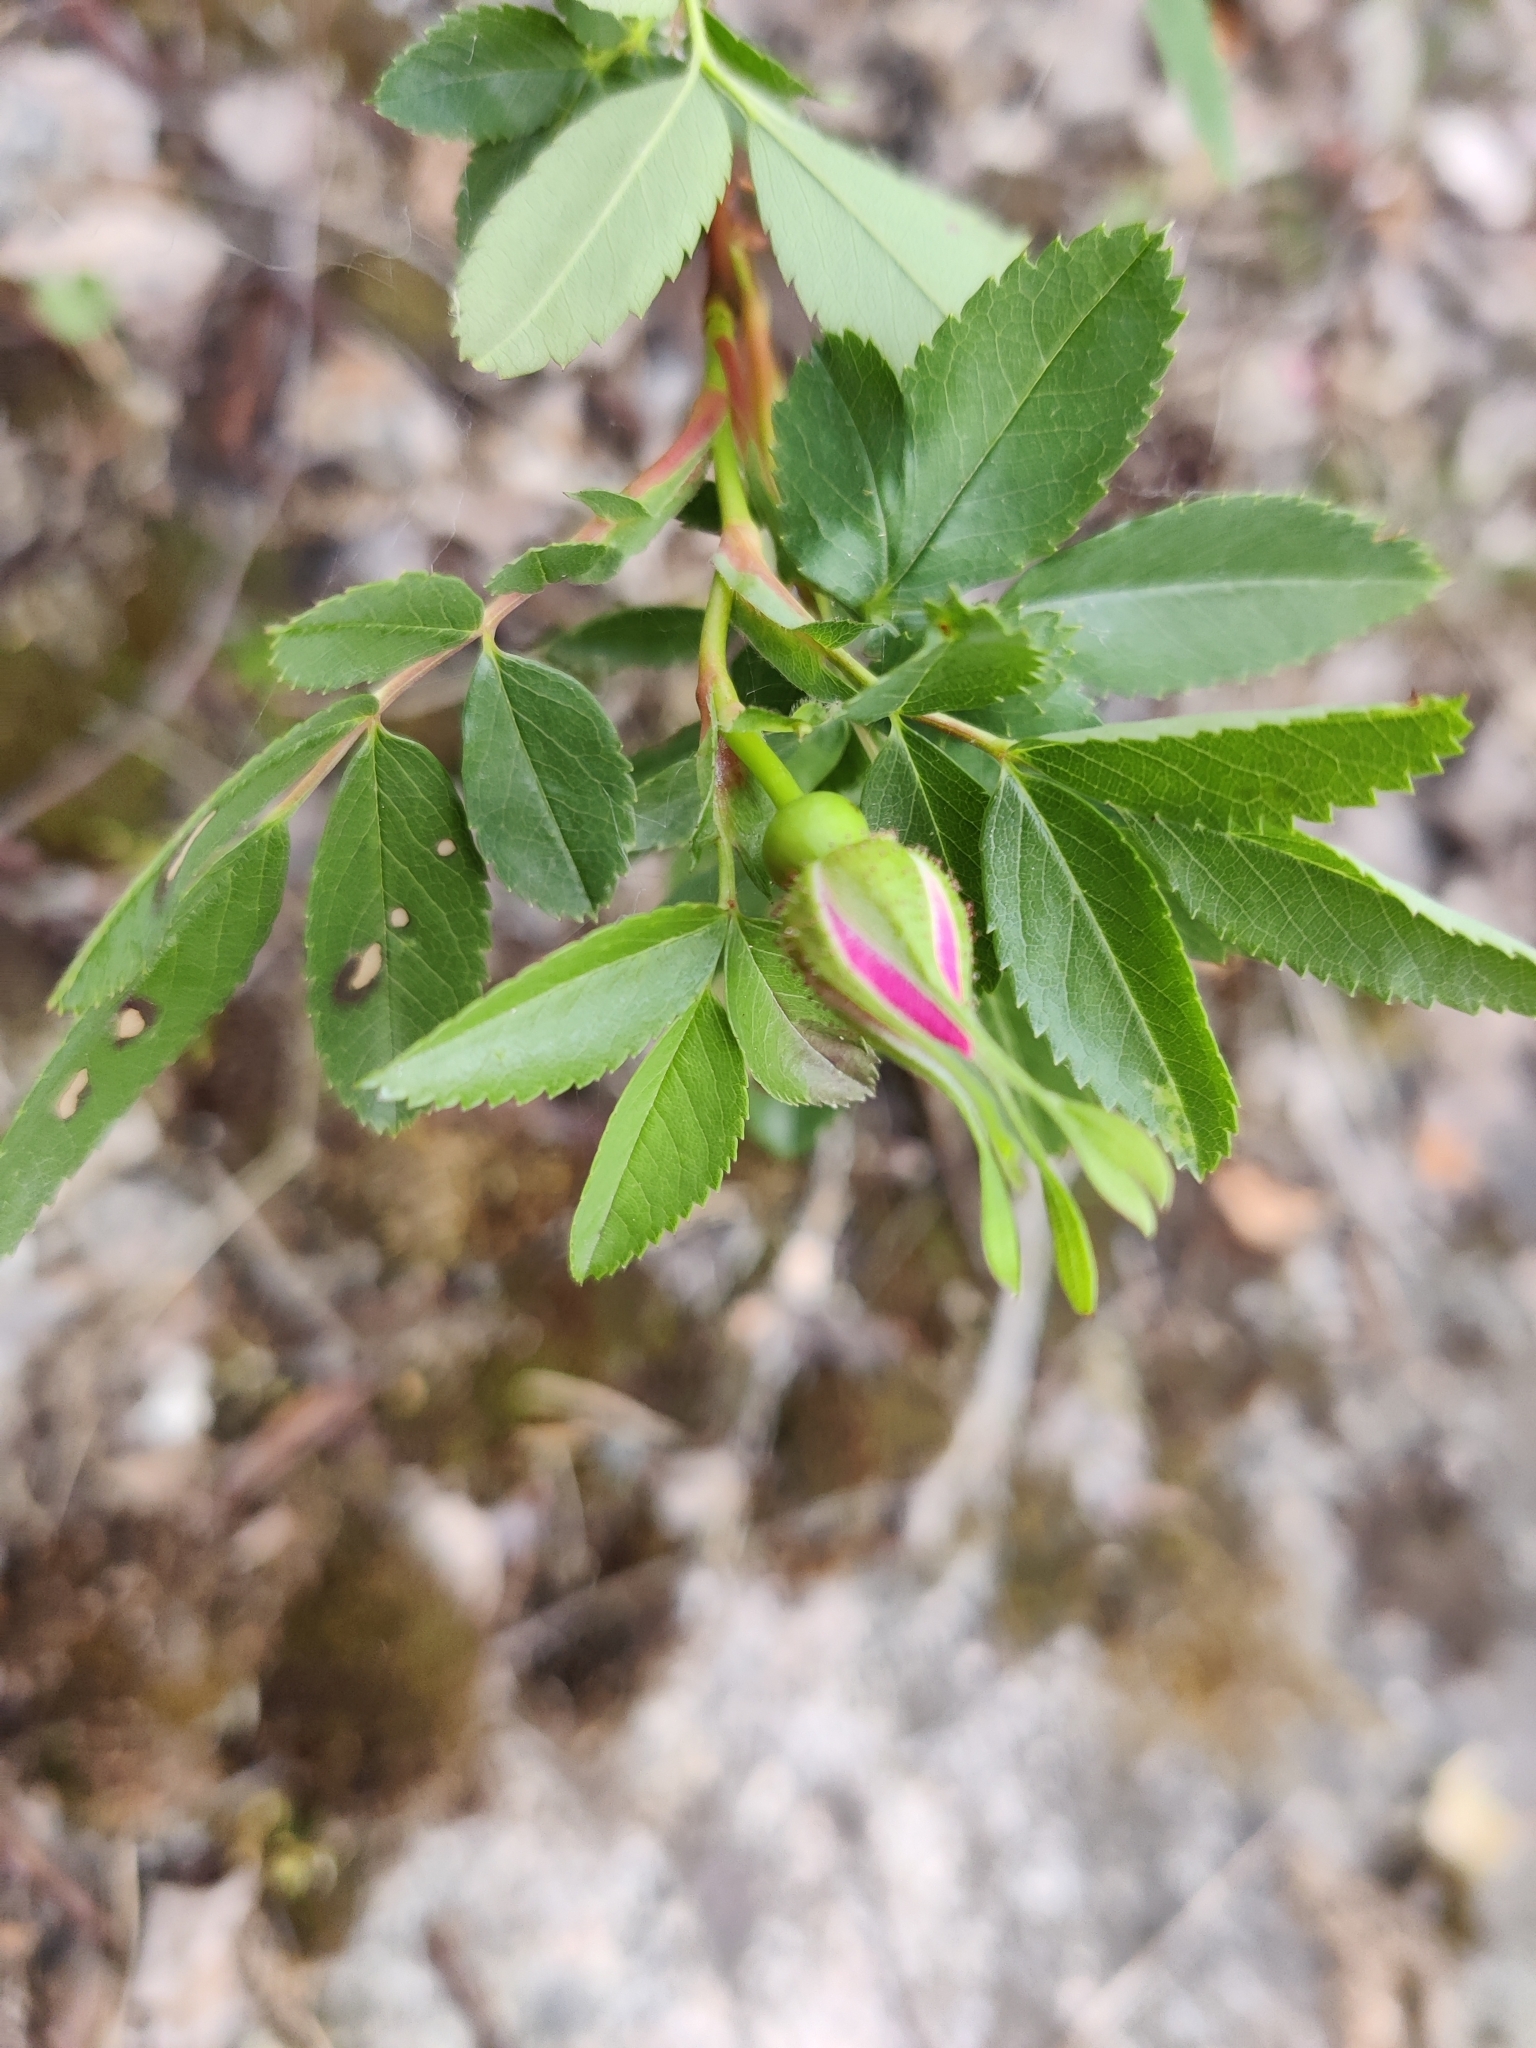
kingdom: Plantae
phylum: Tracheophyta
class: Magnoliopsida
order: Rosales
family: Rosaceae
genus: Rosa
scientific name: Rosa rugosa
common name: Japanese rose
